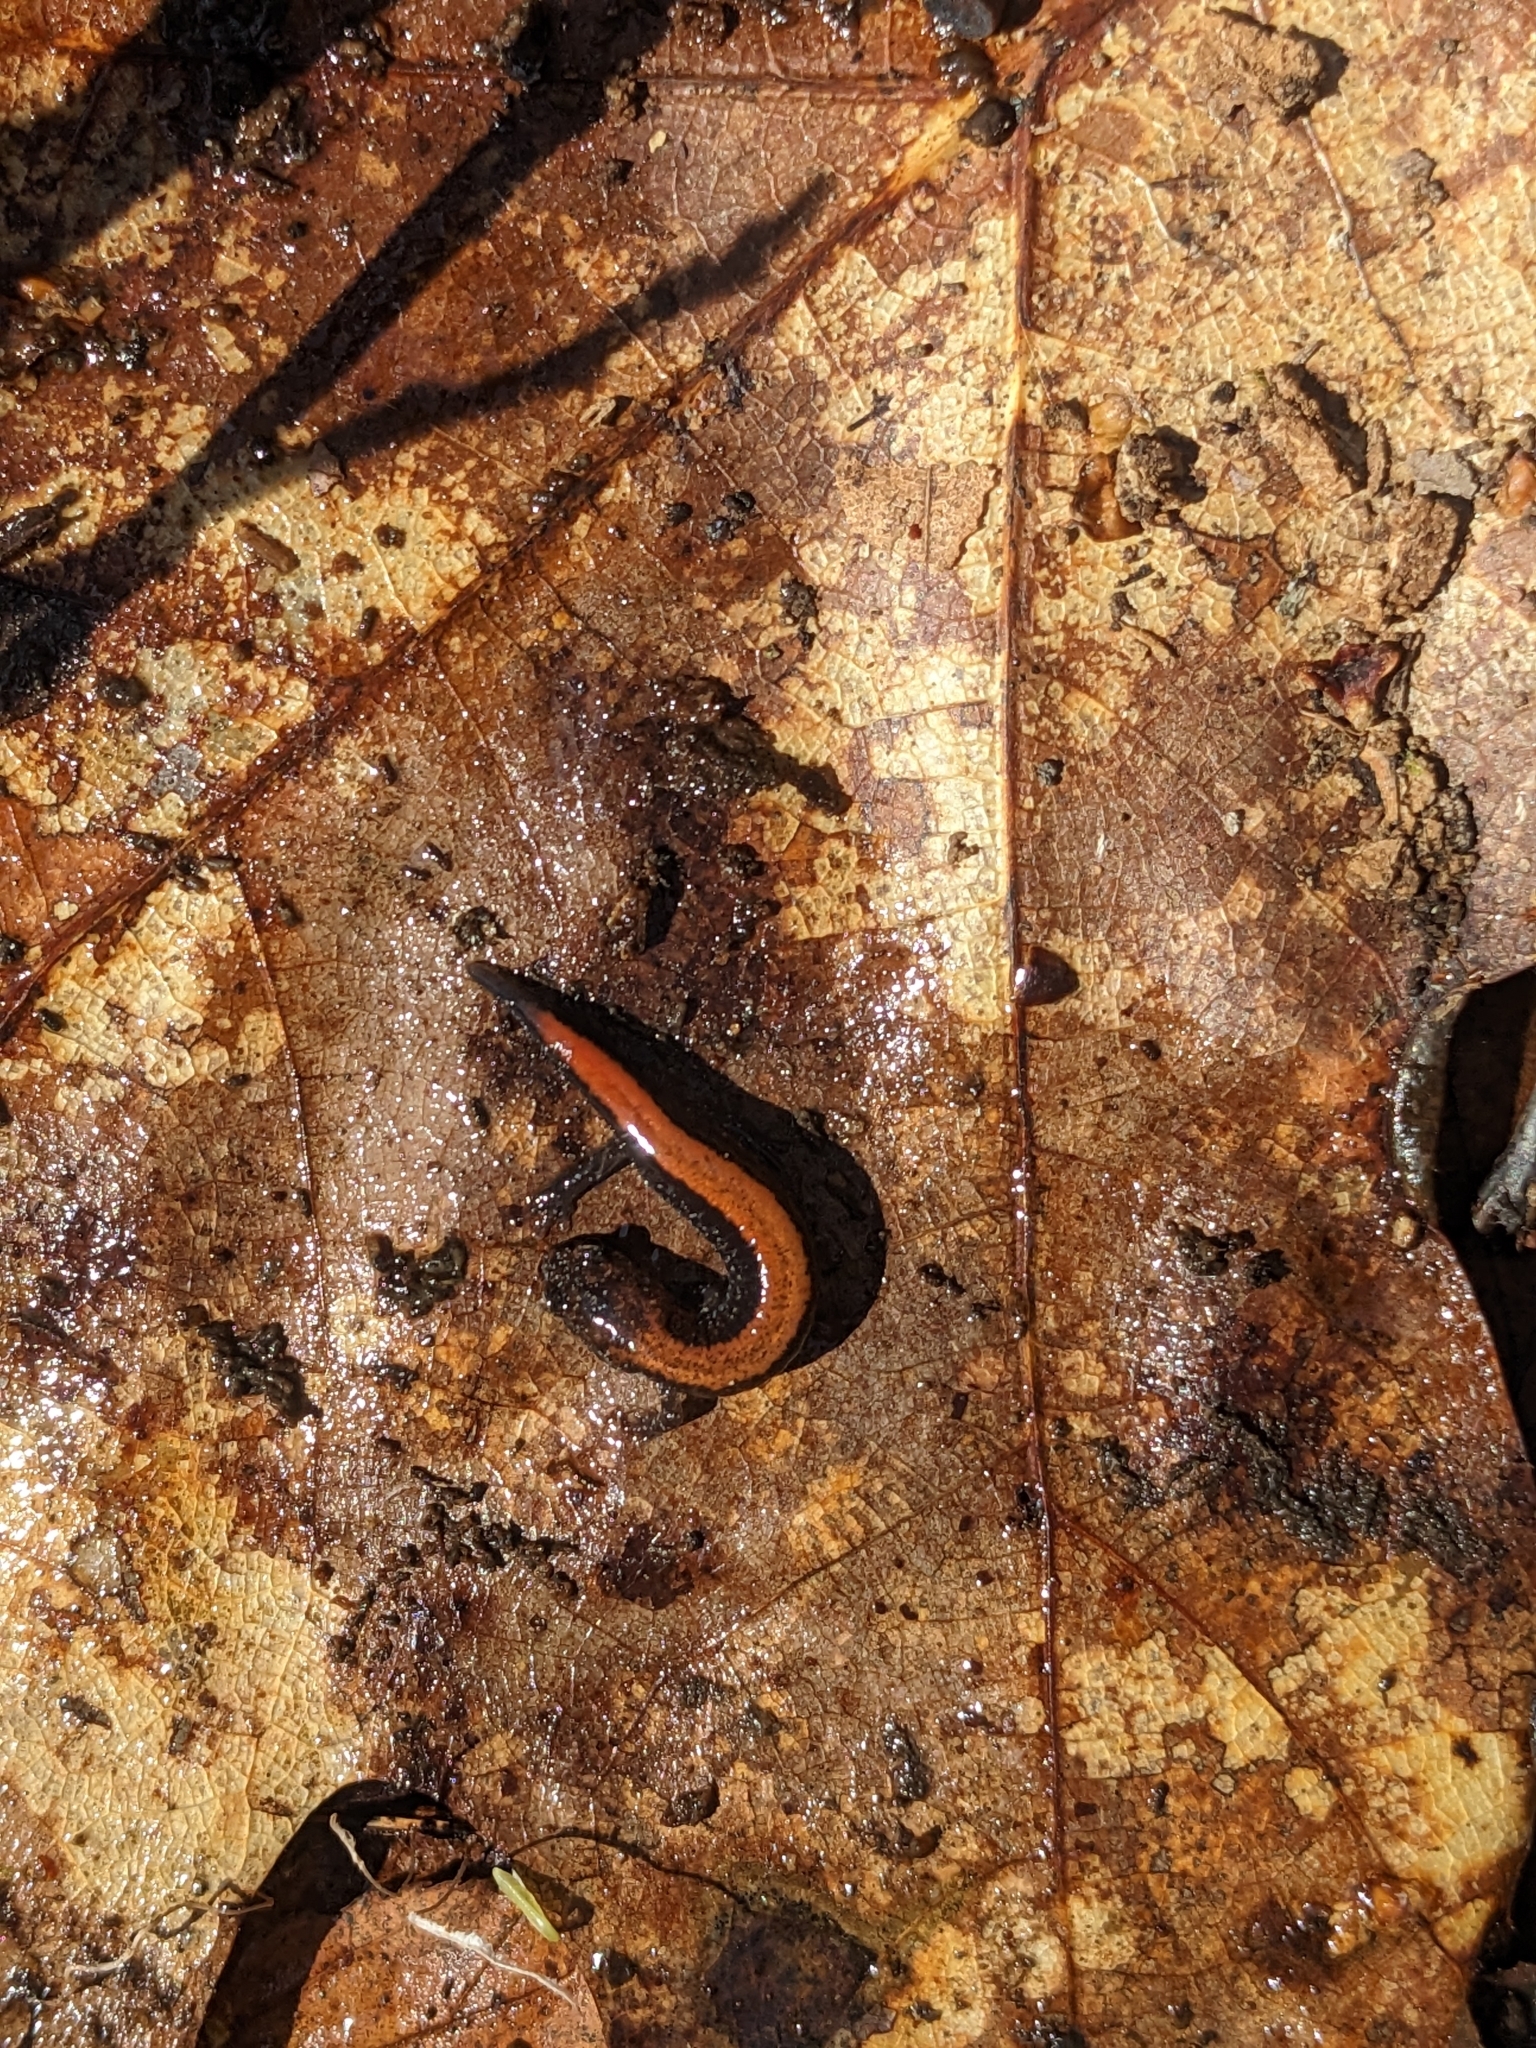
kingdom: Animalia
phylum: Chordata
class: Amphibia
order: Caudata
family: Plethodontidae
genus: Plethodon
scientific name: Plethodon cinereus
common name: Redback salamander
